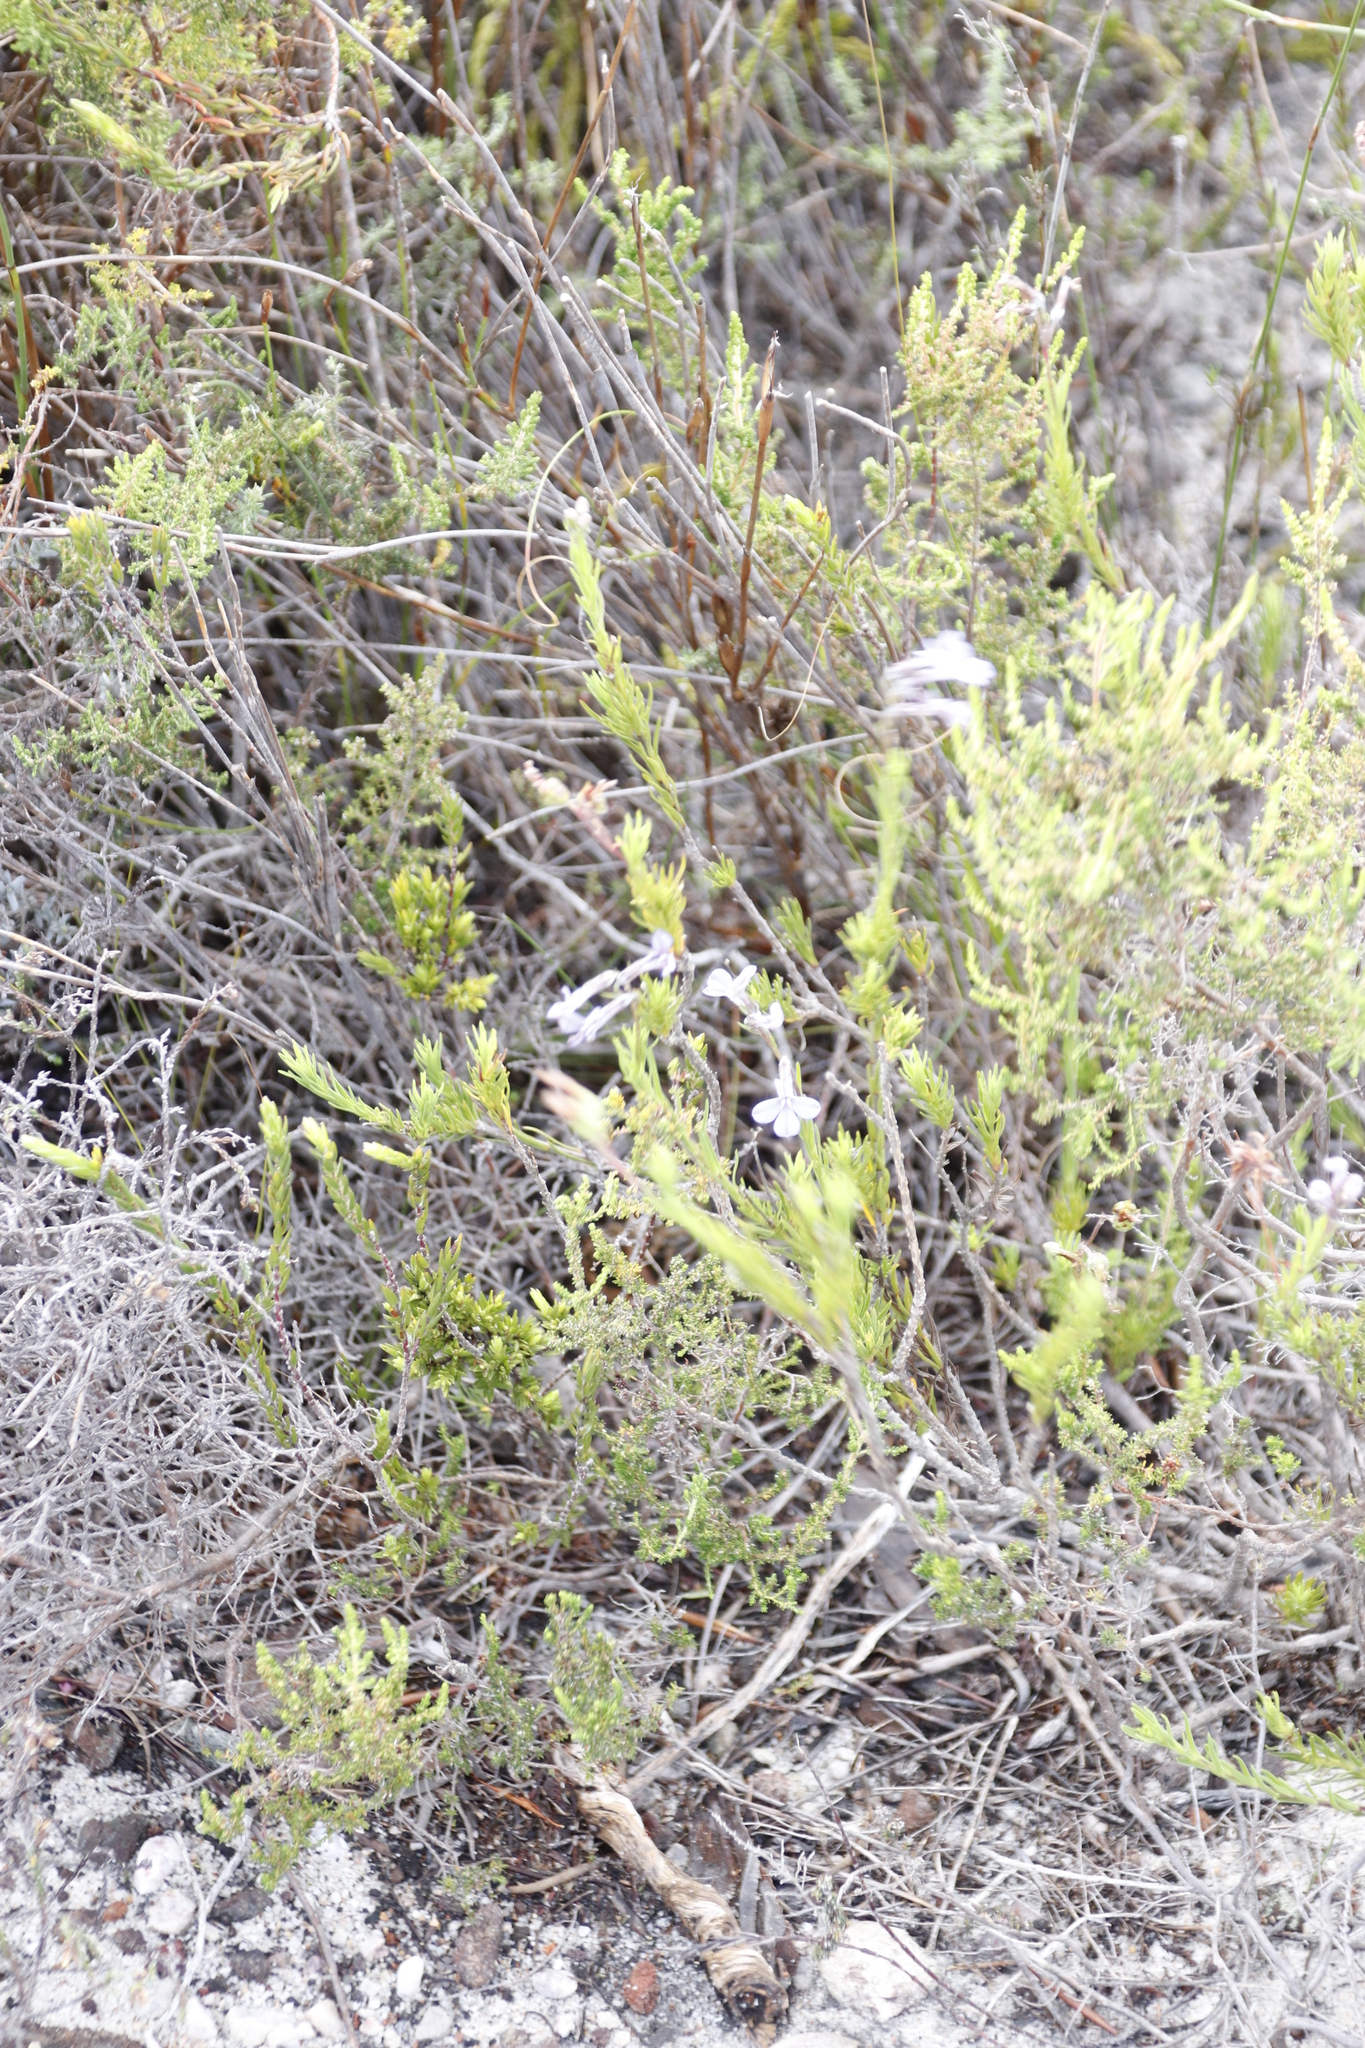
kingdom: Plantae
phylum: Tracheophyta
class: Magnoliopsida
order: Asterales
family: Campanulaceae
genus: Lobelia
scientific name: Lobelia pinifolia
